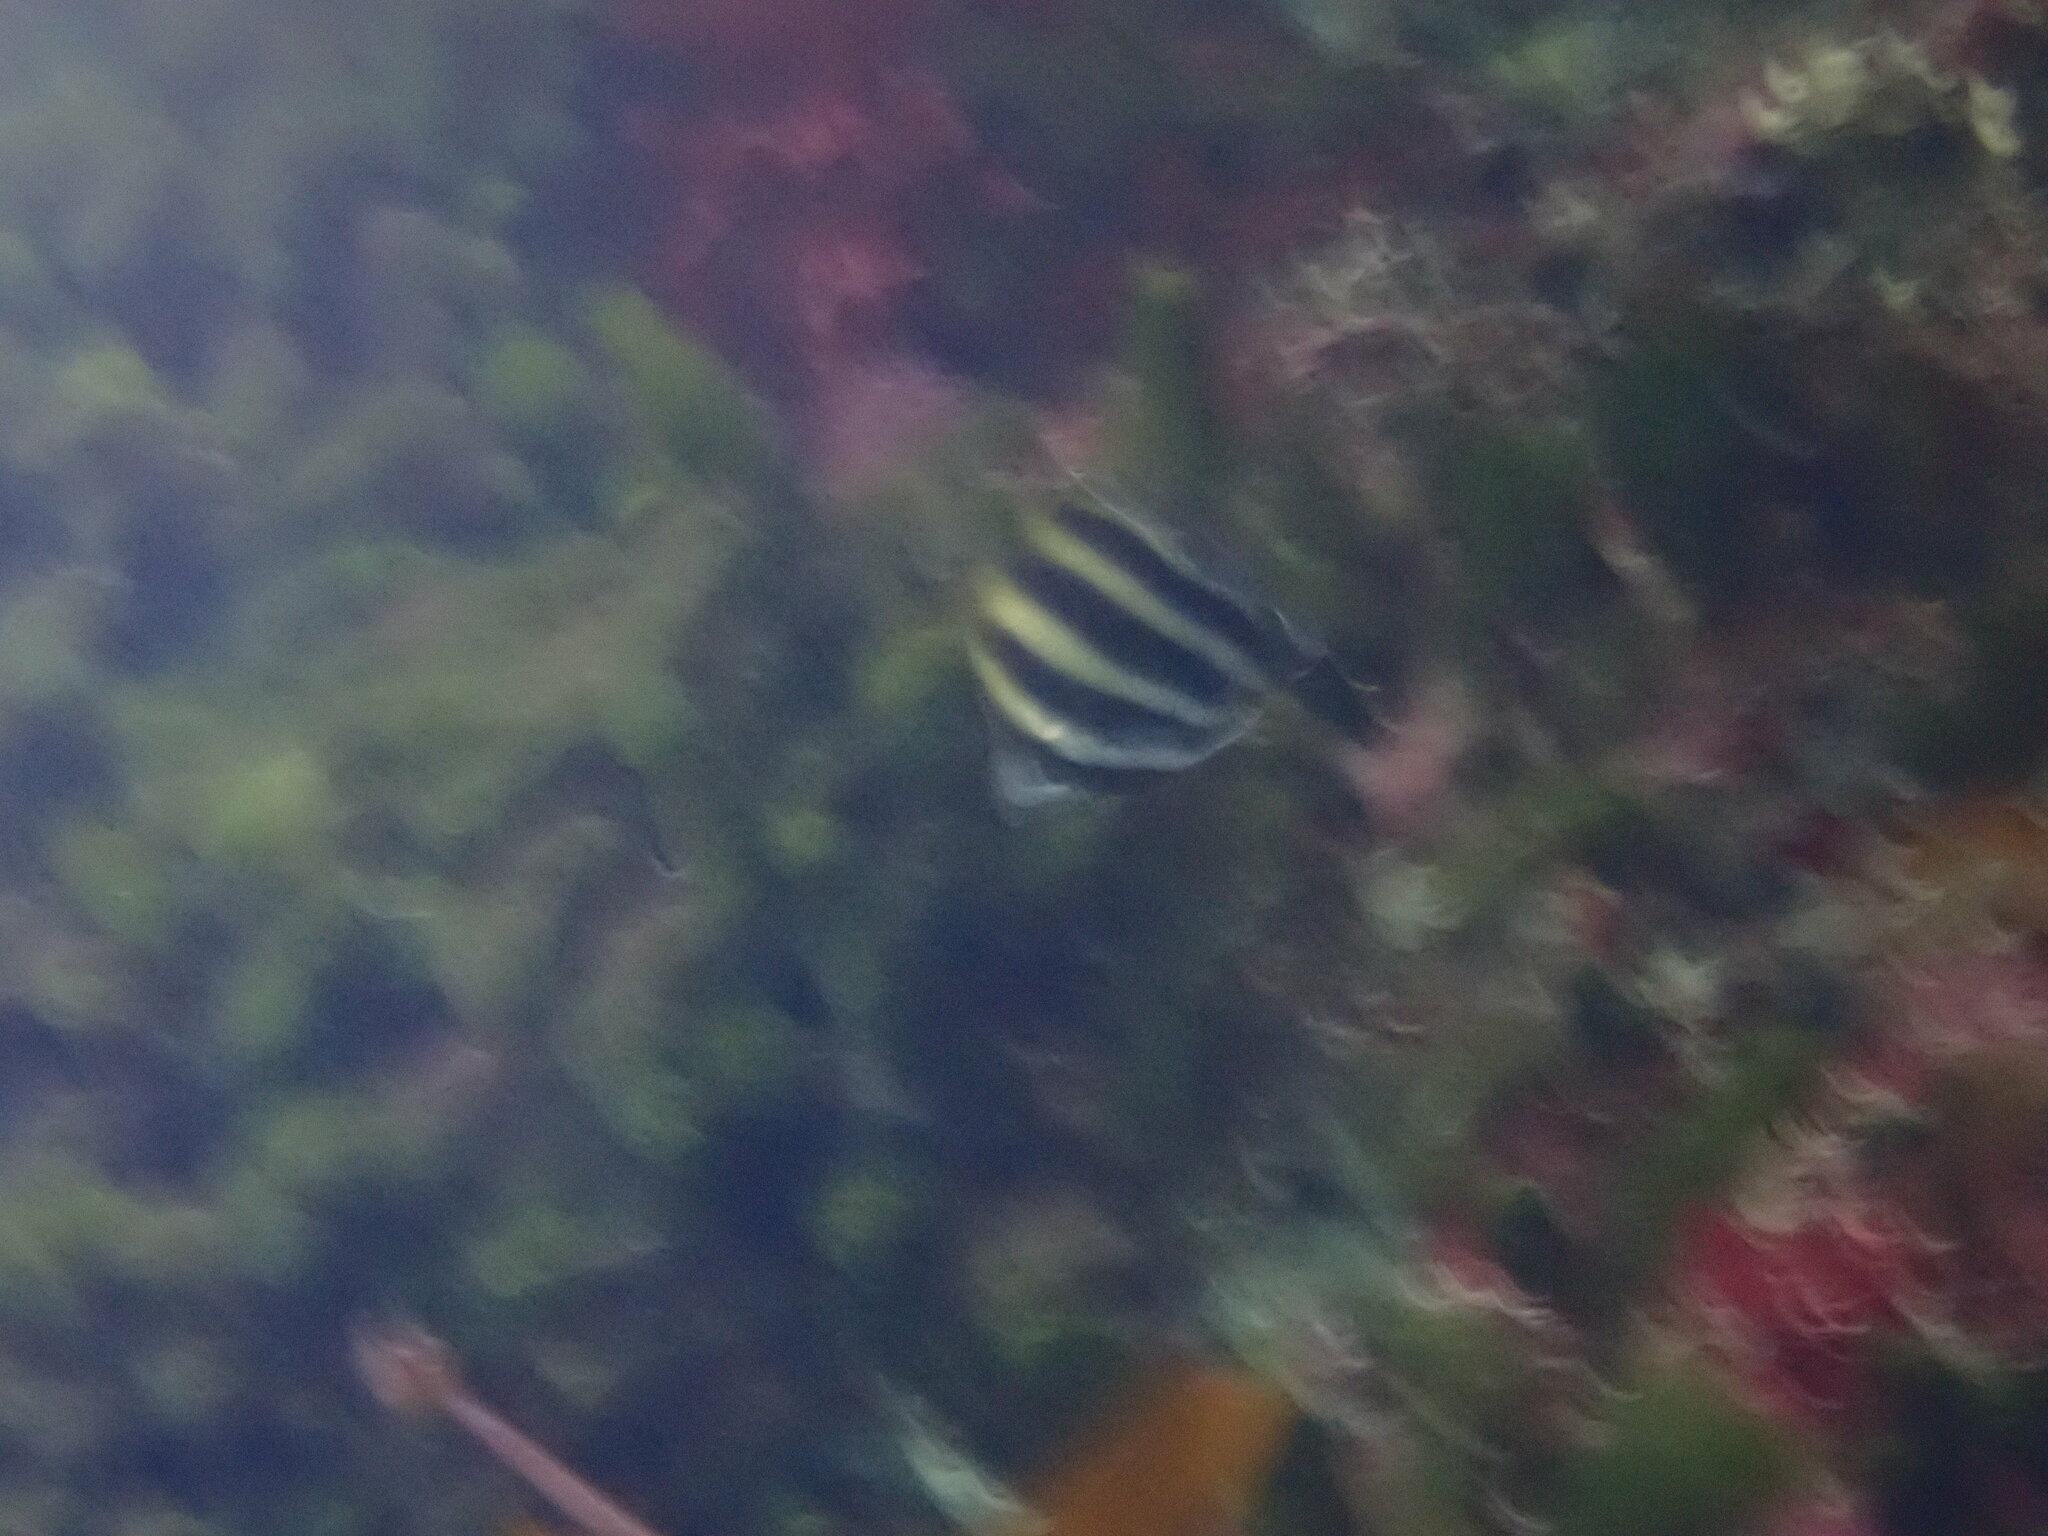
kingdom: Animalia
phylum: Chordata
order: Perciformes
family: Kyphosidae
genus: Tilodon
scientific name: Tilodon sexfasciatus
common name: Moonlighter
